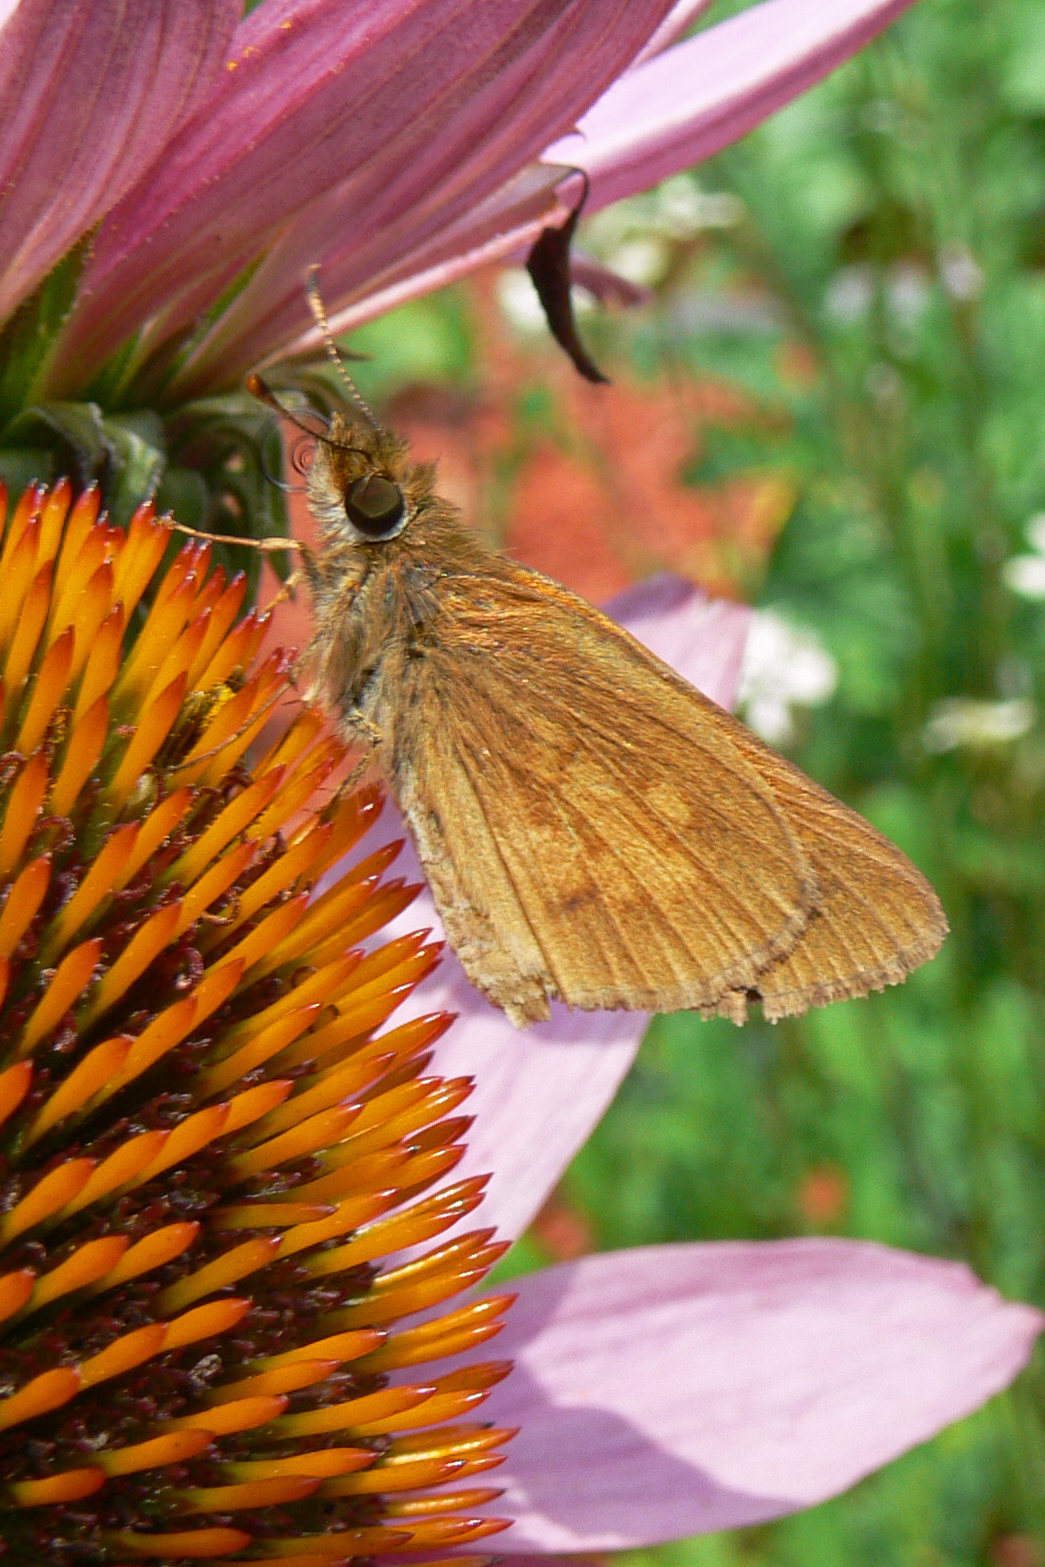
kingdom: Animalia
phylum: Arthropoda
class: Insecta
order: Lepidoptera
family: Hesperiidae
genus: Poanes
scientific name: Poanes viator
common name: Broad-winged skipper
